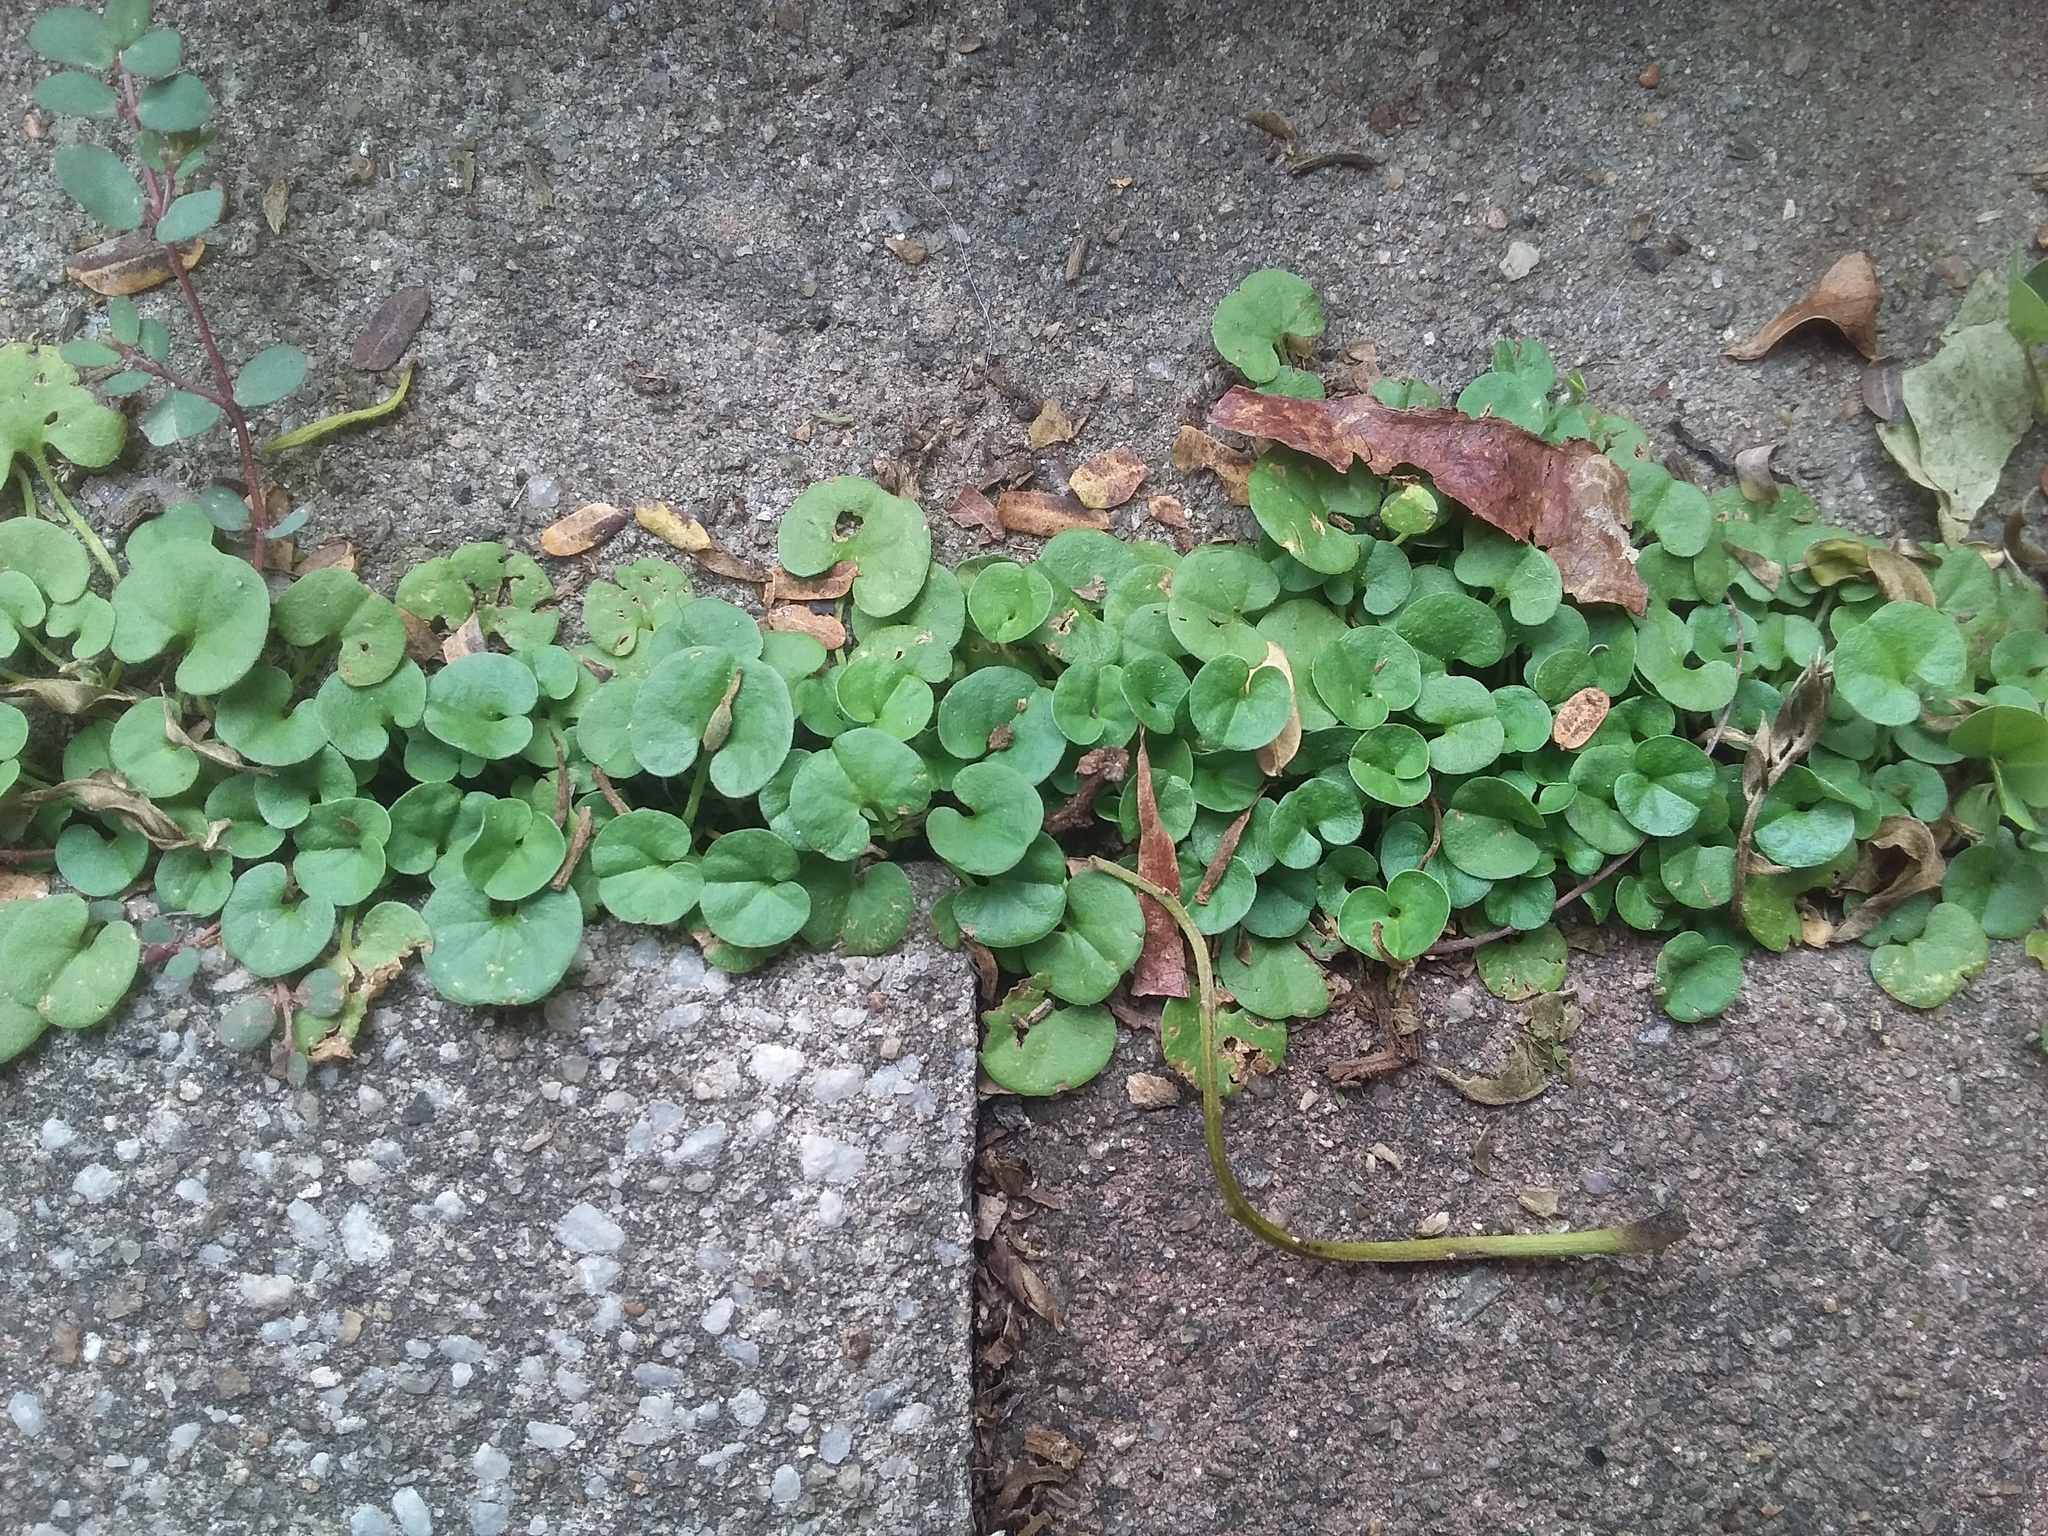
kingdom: Plantae
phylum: Tracheophyta
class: Magnoliopsida
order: Solanales
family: Convolvulaceae
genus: Dichondra
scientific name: Dichondra micrantha
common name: Kidneyweed
